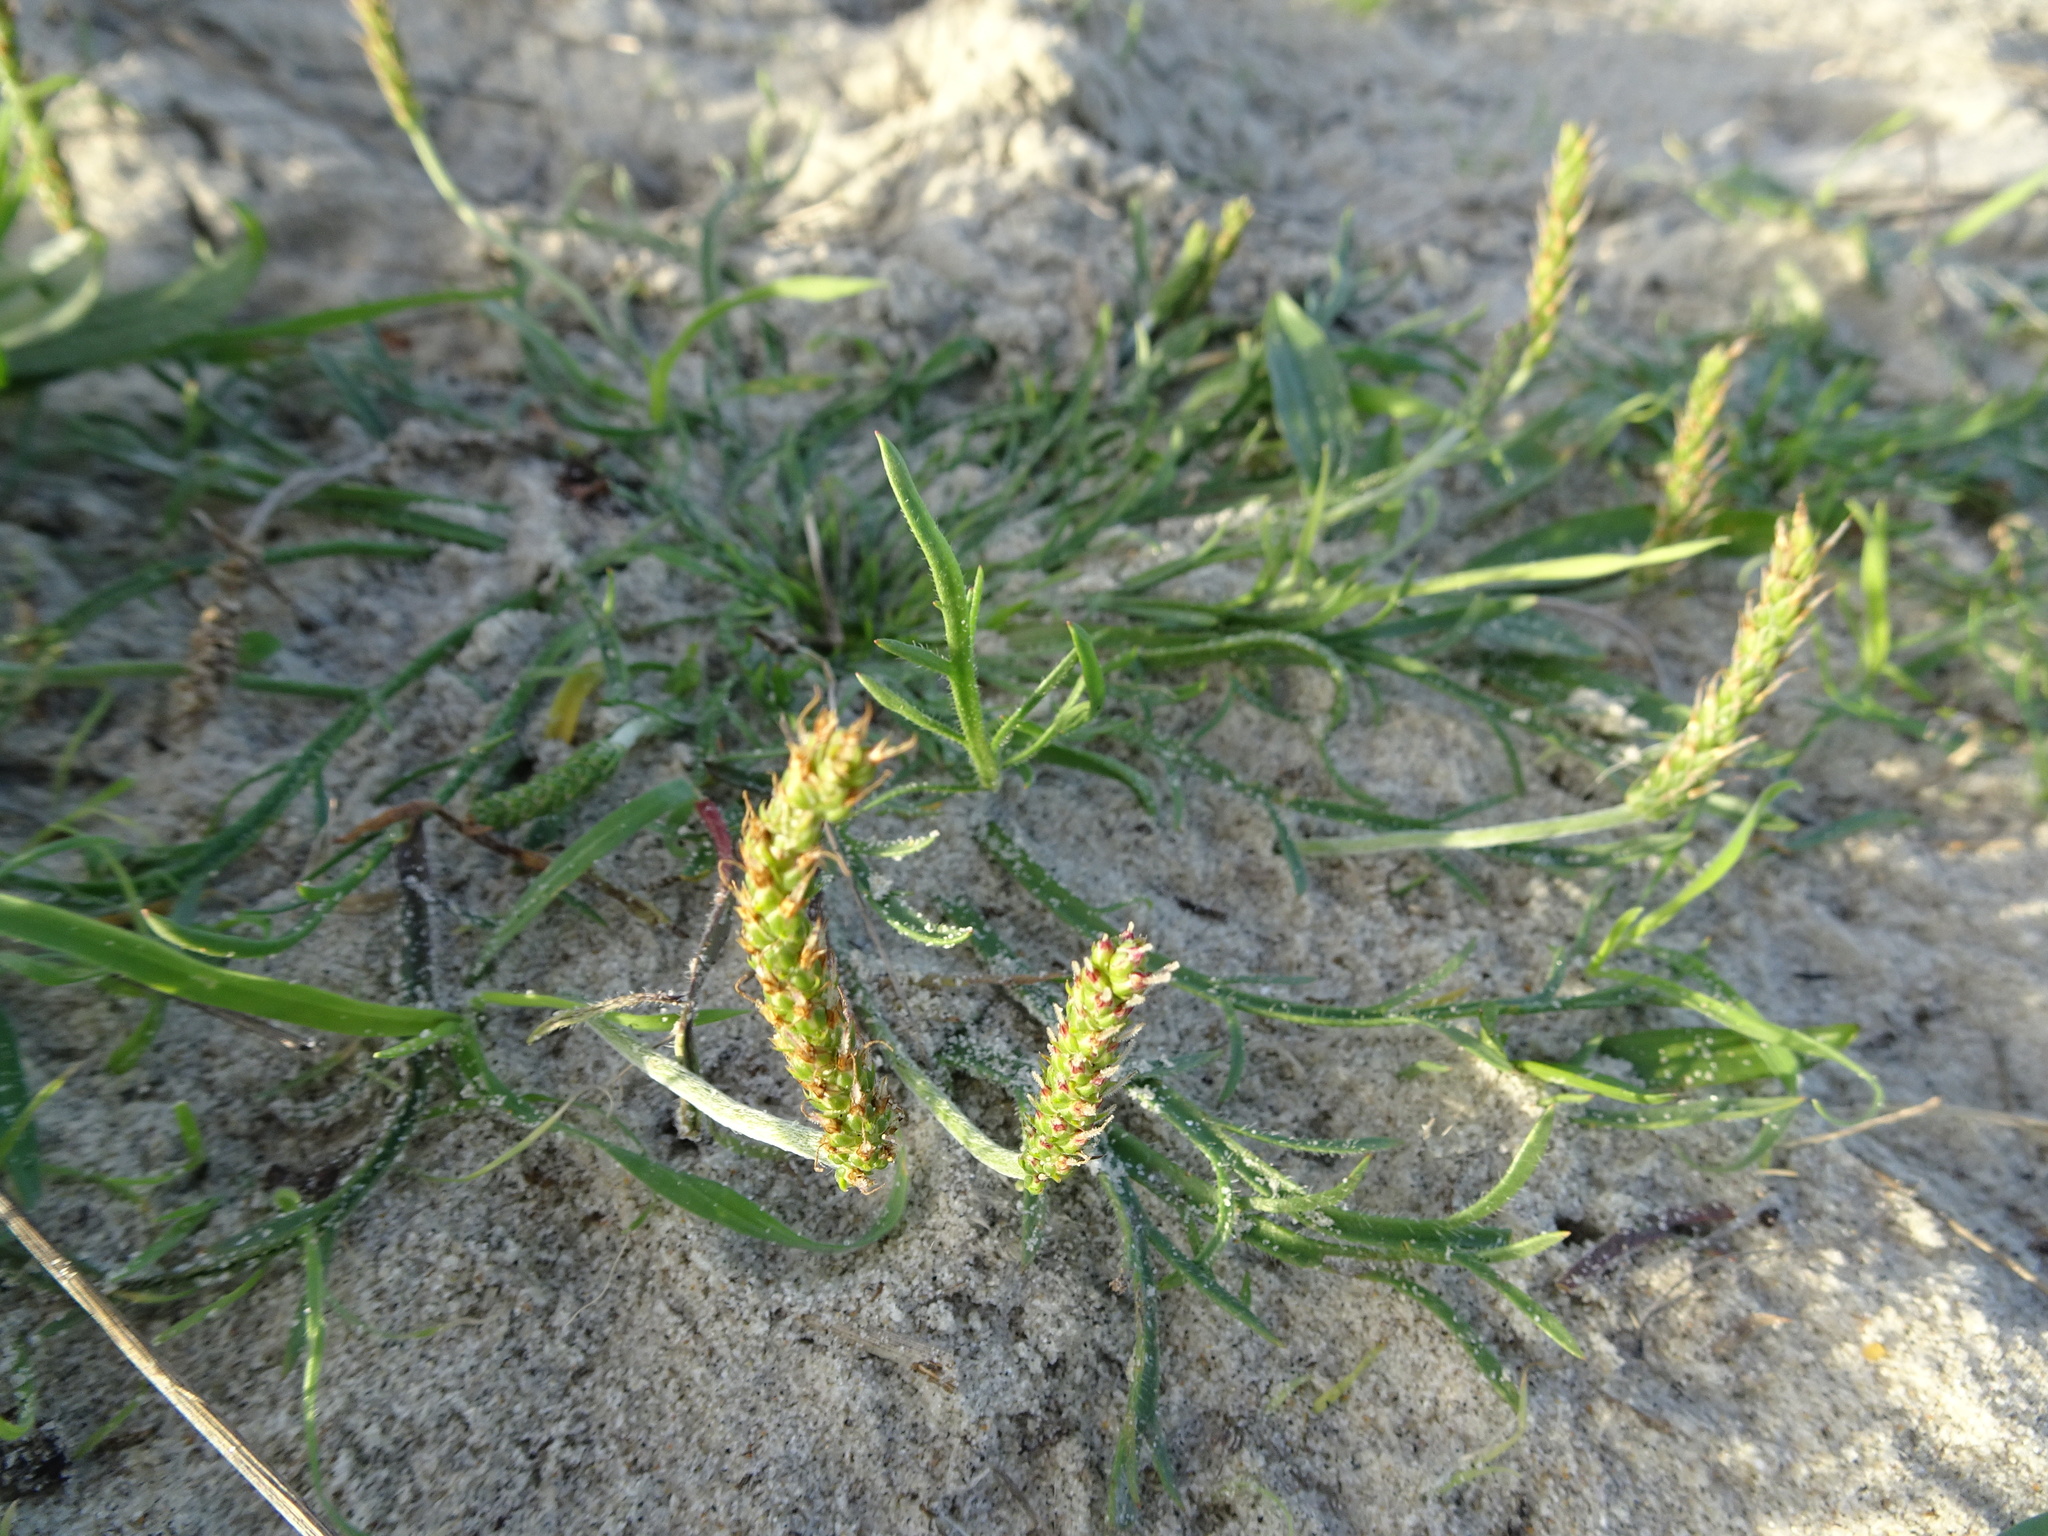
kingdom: Plantae
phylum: Tracheophyta
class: Magnoliopsida
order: Lamiales
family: Plantaginaceae
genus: Plantago
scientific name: Plantago coronopus
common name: Buck's-horn plantain
